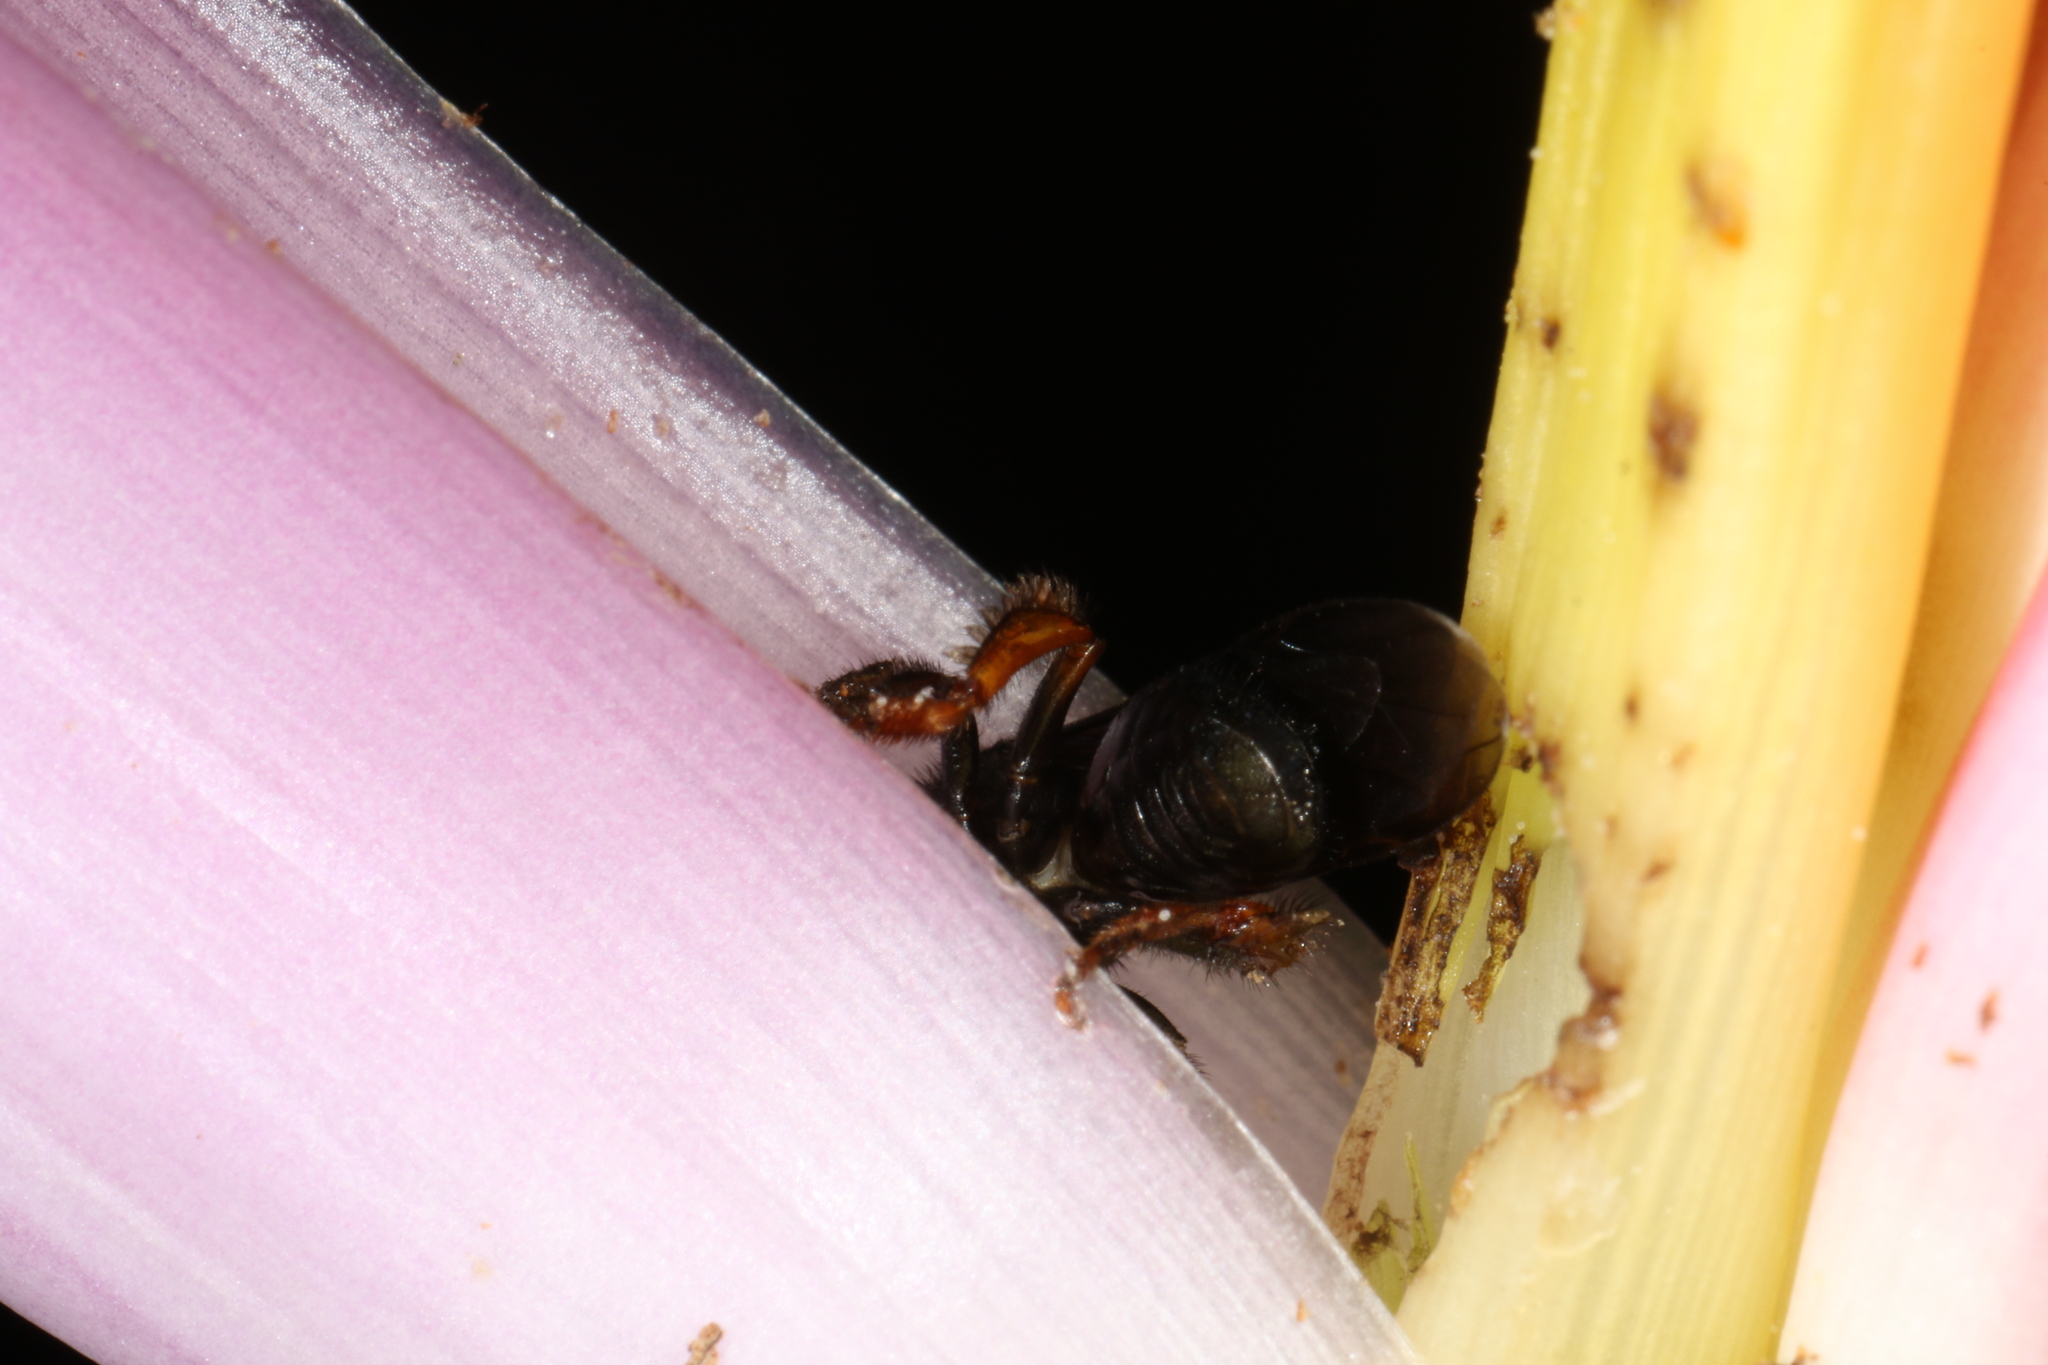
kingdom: Animalia
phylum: Arthropoda
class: Insecta
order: Hymenoptera
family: Apidae
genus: Trigona
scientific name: Trigona spinipes
